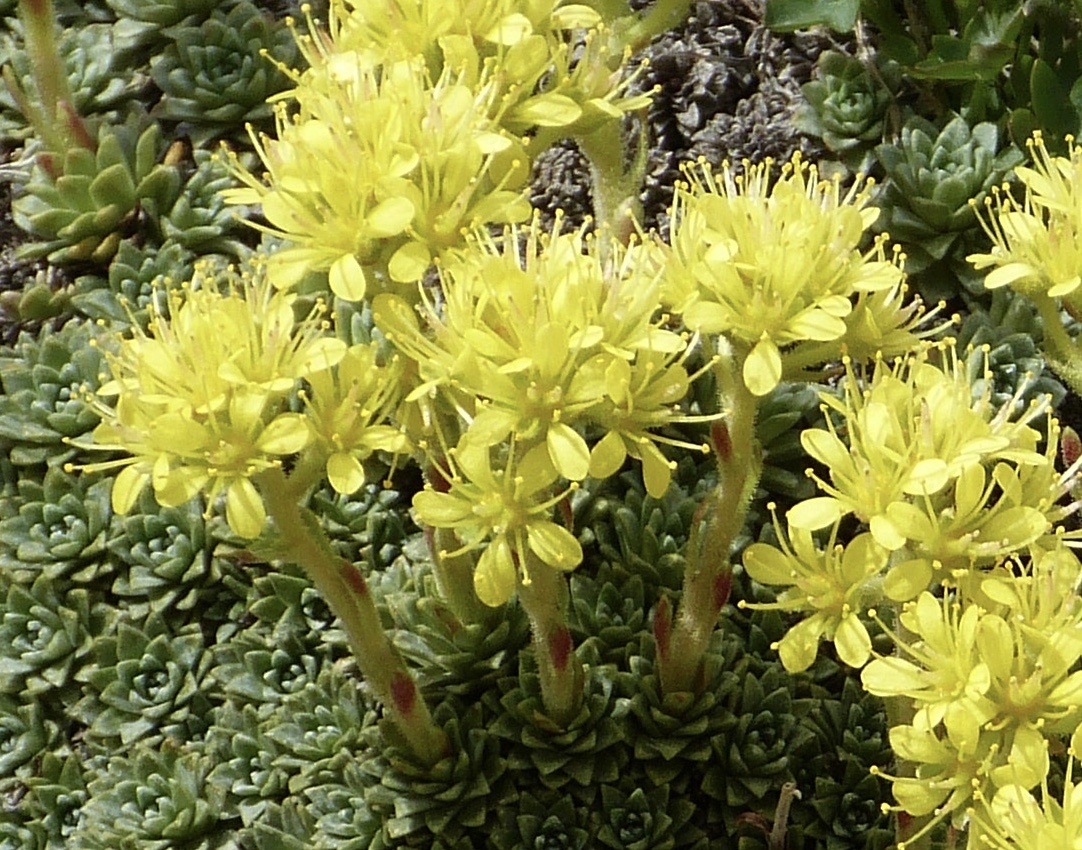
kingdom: Plantae
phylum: Tracheophyta
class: Magnoliopsida
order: Saxifragales
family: Saxifragaceae
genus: Saxifraga
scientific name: Saxifraga kotschyi
